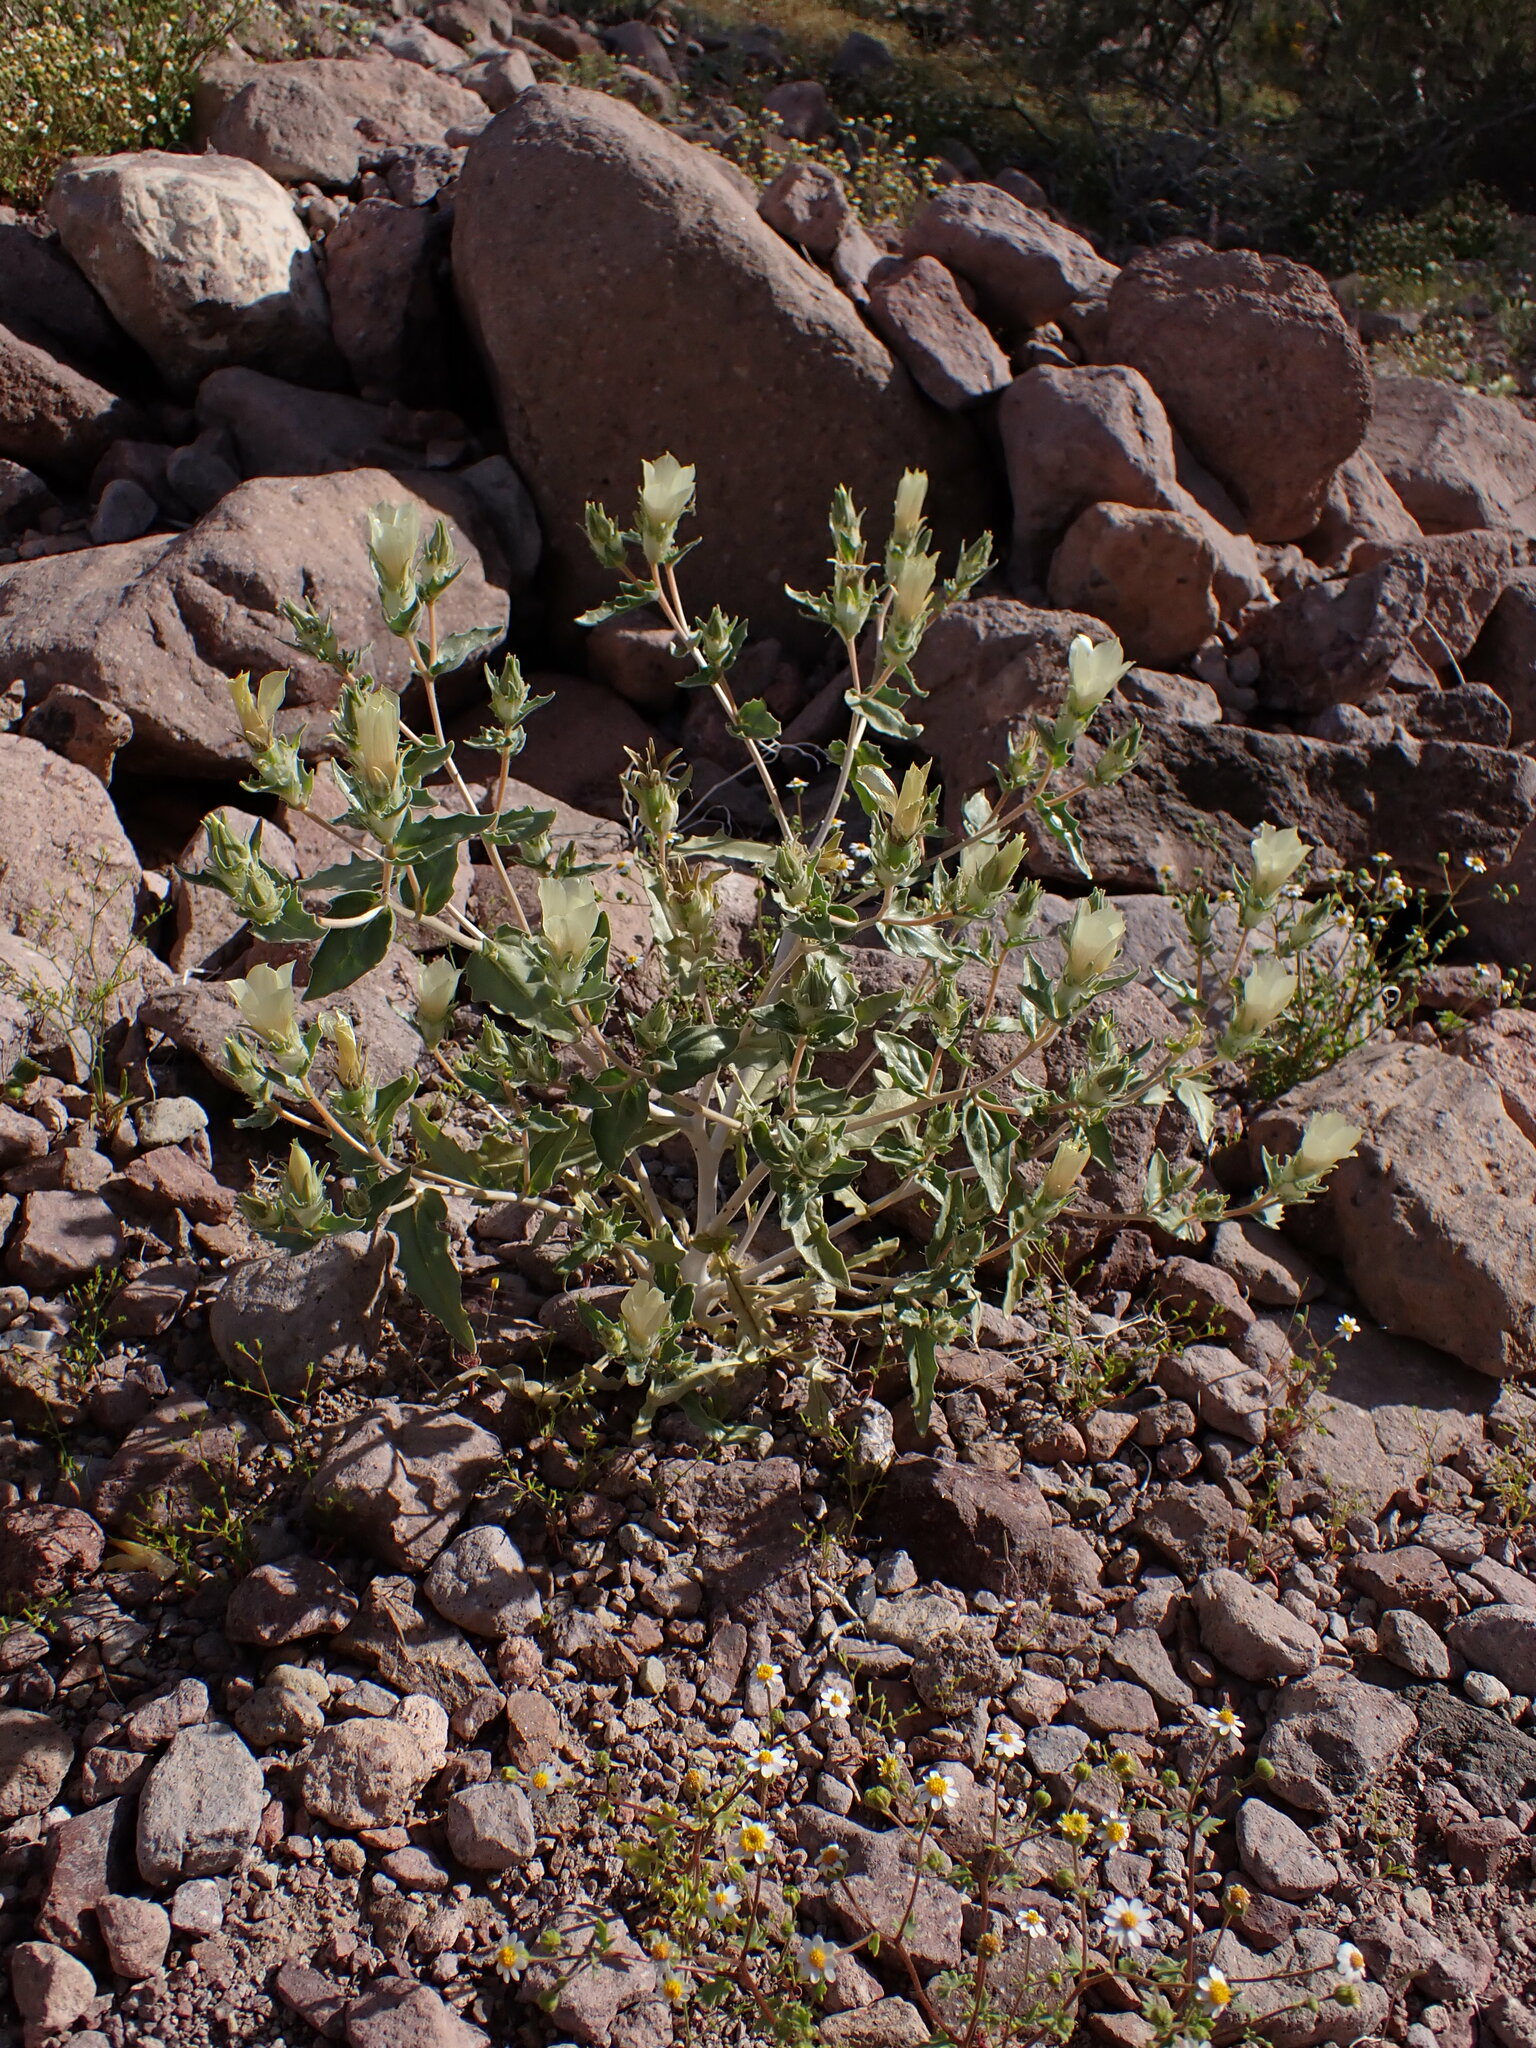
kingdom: Plantae
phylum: Tracheophyta
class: Magnoliopsida
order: Cornales
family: Loasaceae
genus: Mentzelia
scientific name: Mentzelia involucrata
